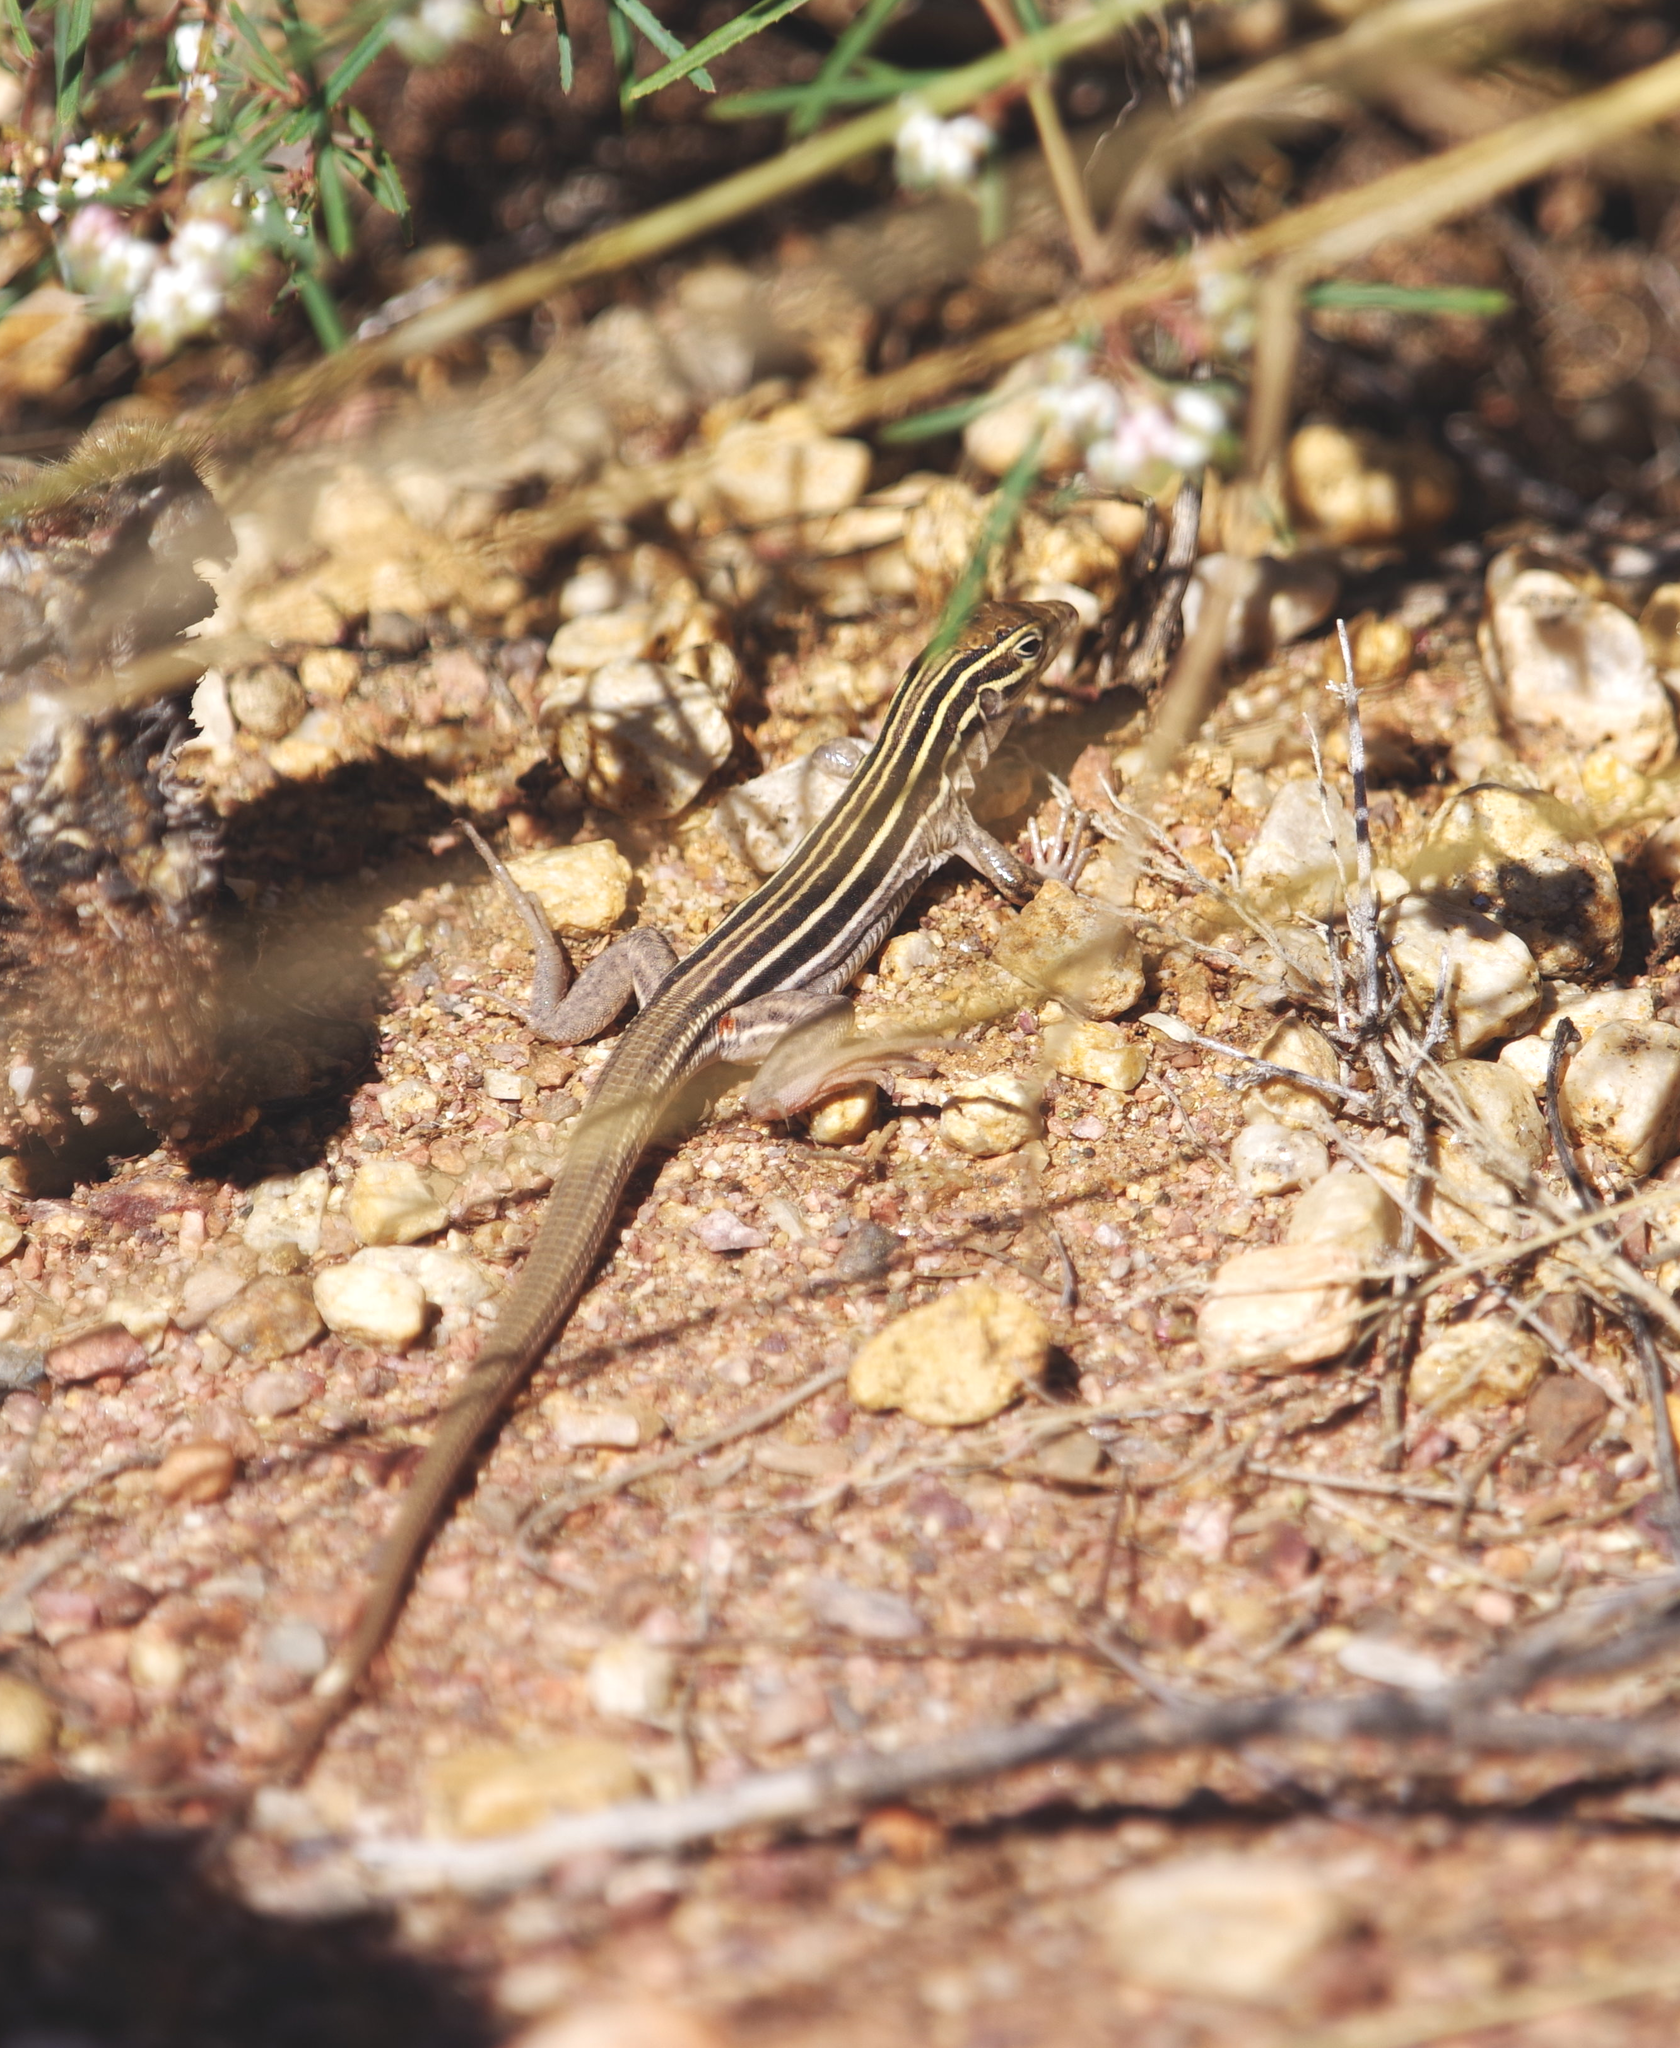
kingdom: Animalia
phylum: Chordata
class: Squamata
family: Teiidae
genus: Aspidoscelis
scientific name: Aspidoscelis sonorae
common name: Sonoran spotted whiptail
